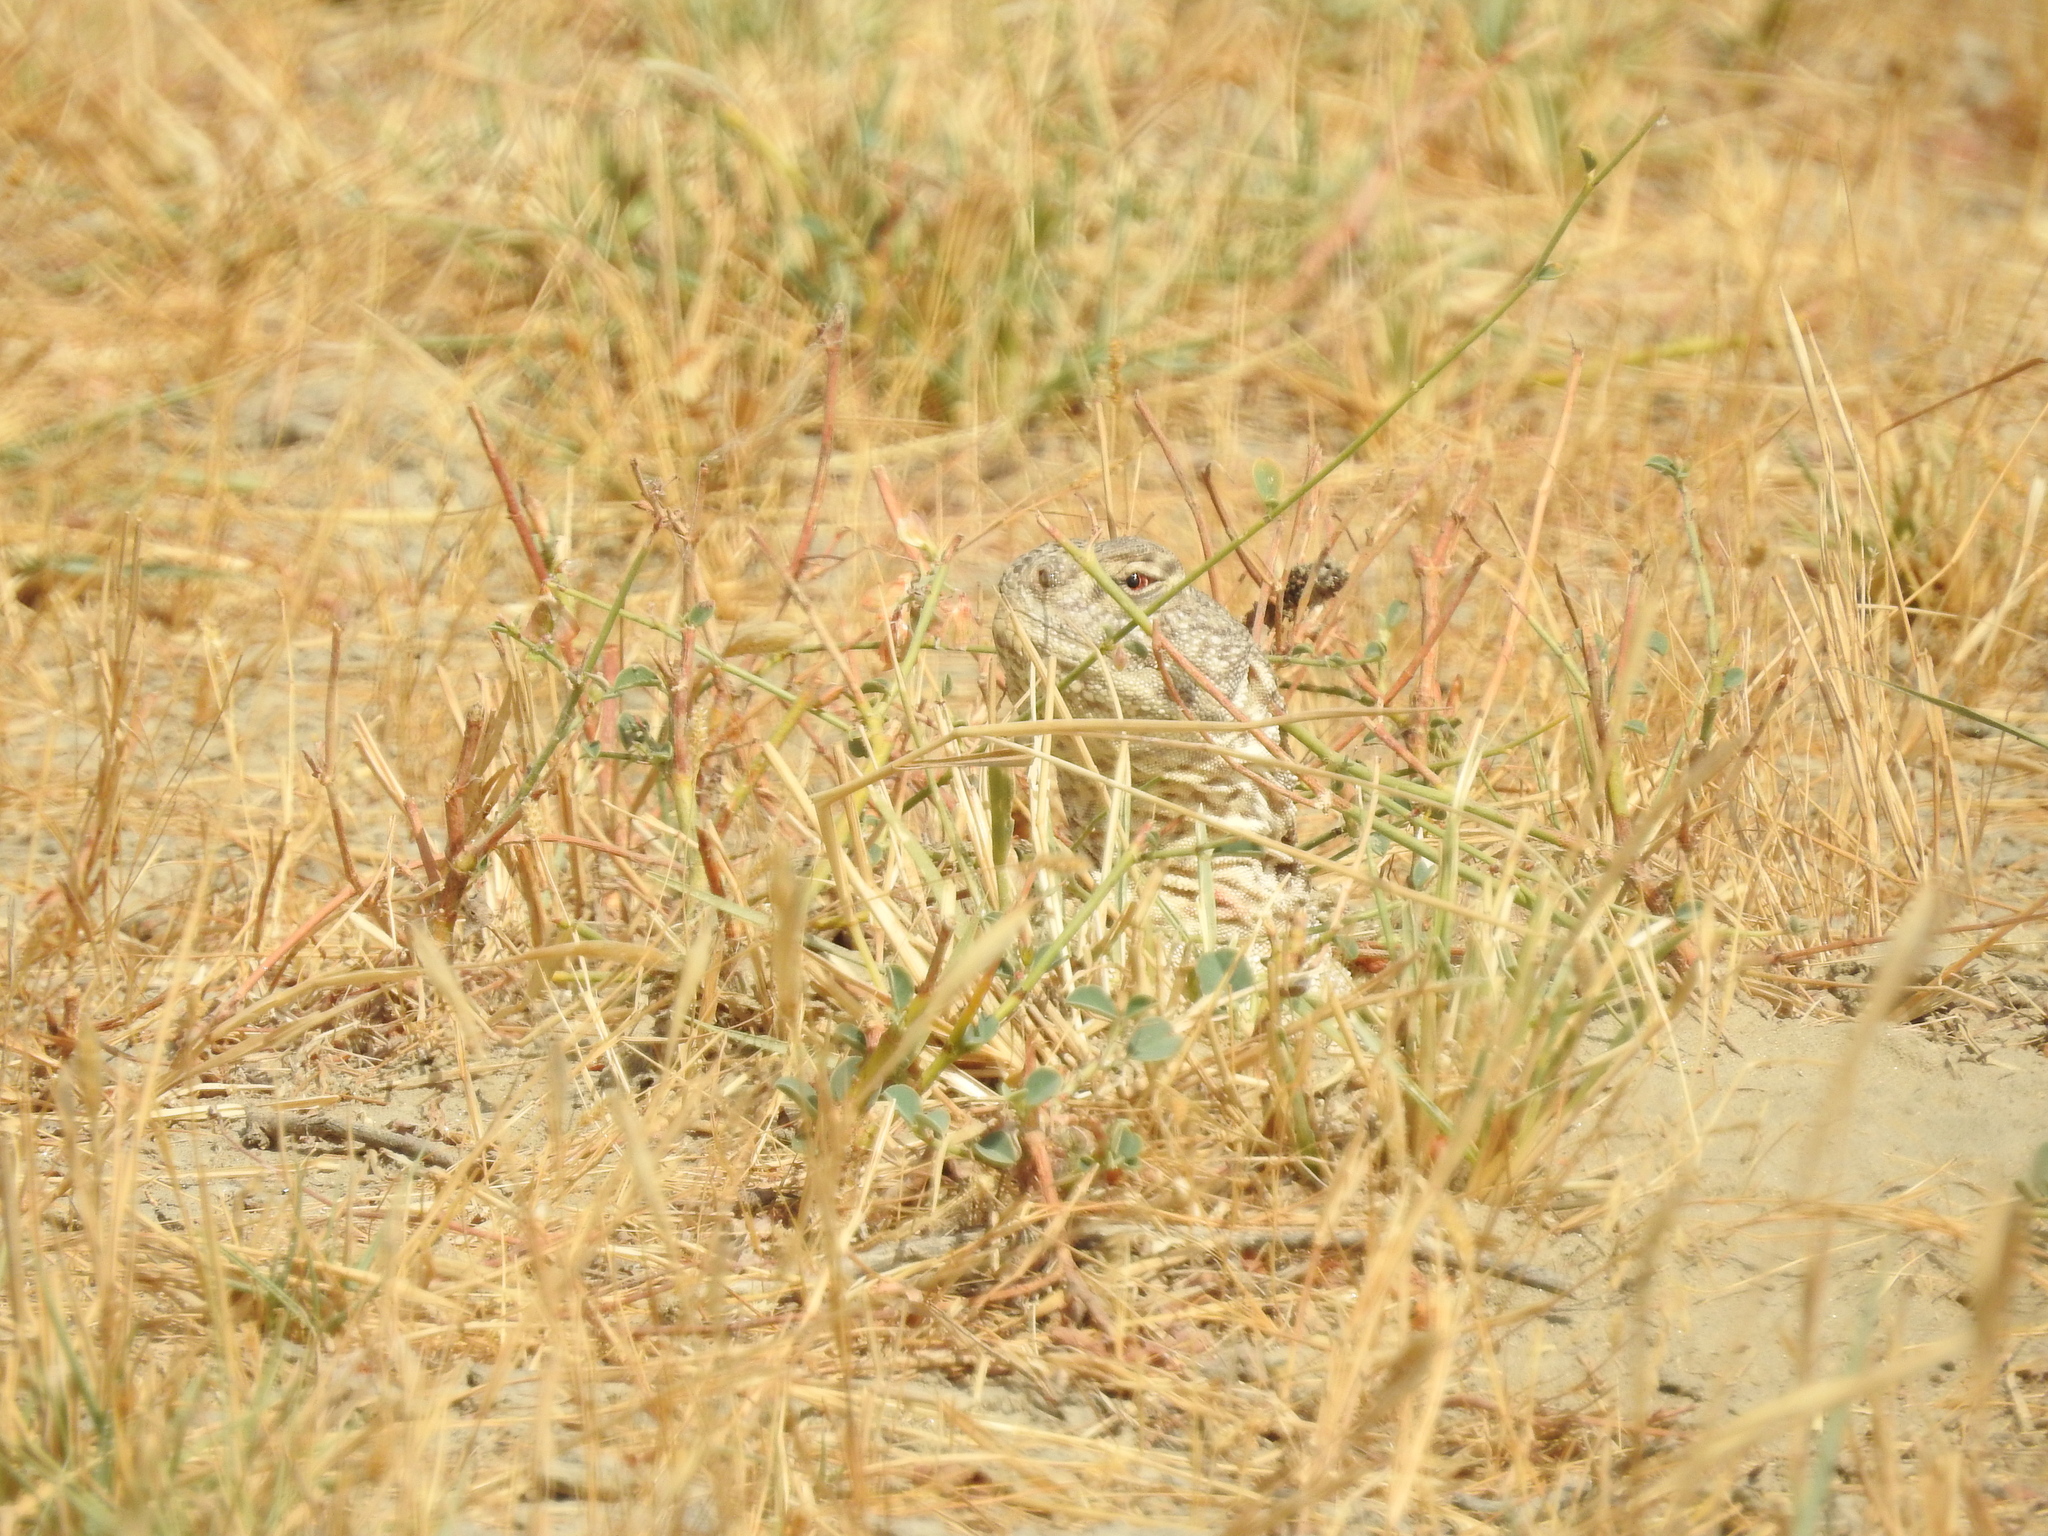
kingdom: Animalia
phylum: Chordata
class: Squamata
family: Agamidae
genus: Saara
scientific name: Saara hardwickii
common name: Hardwick's spiny-tailed lizard
